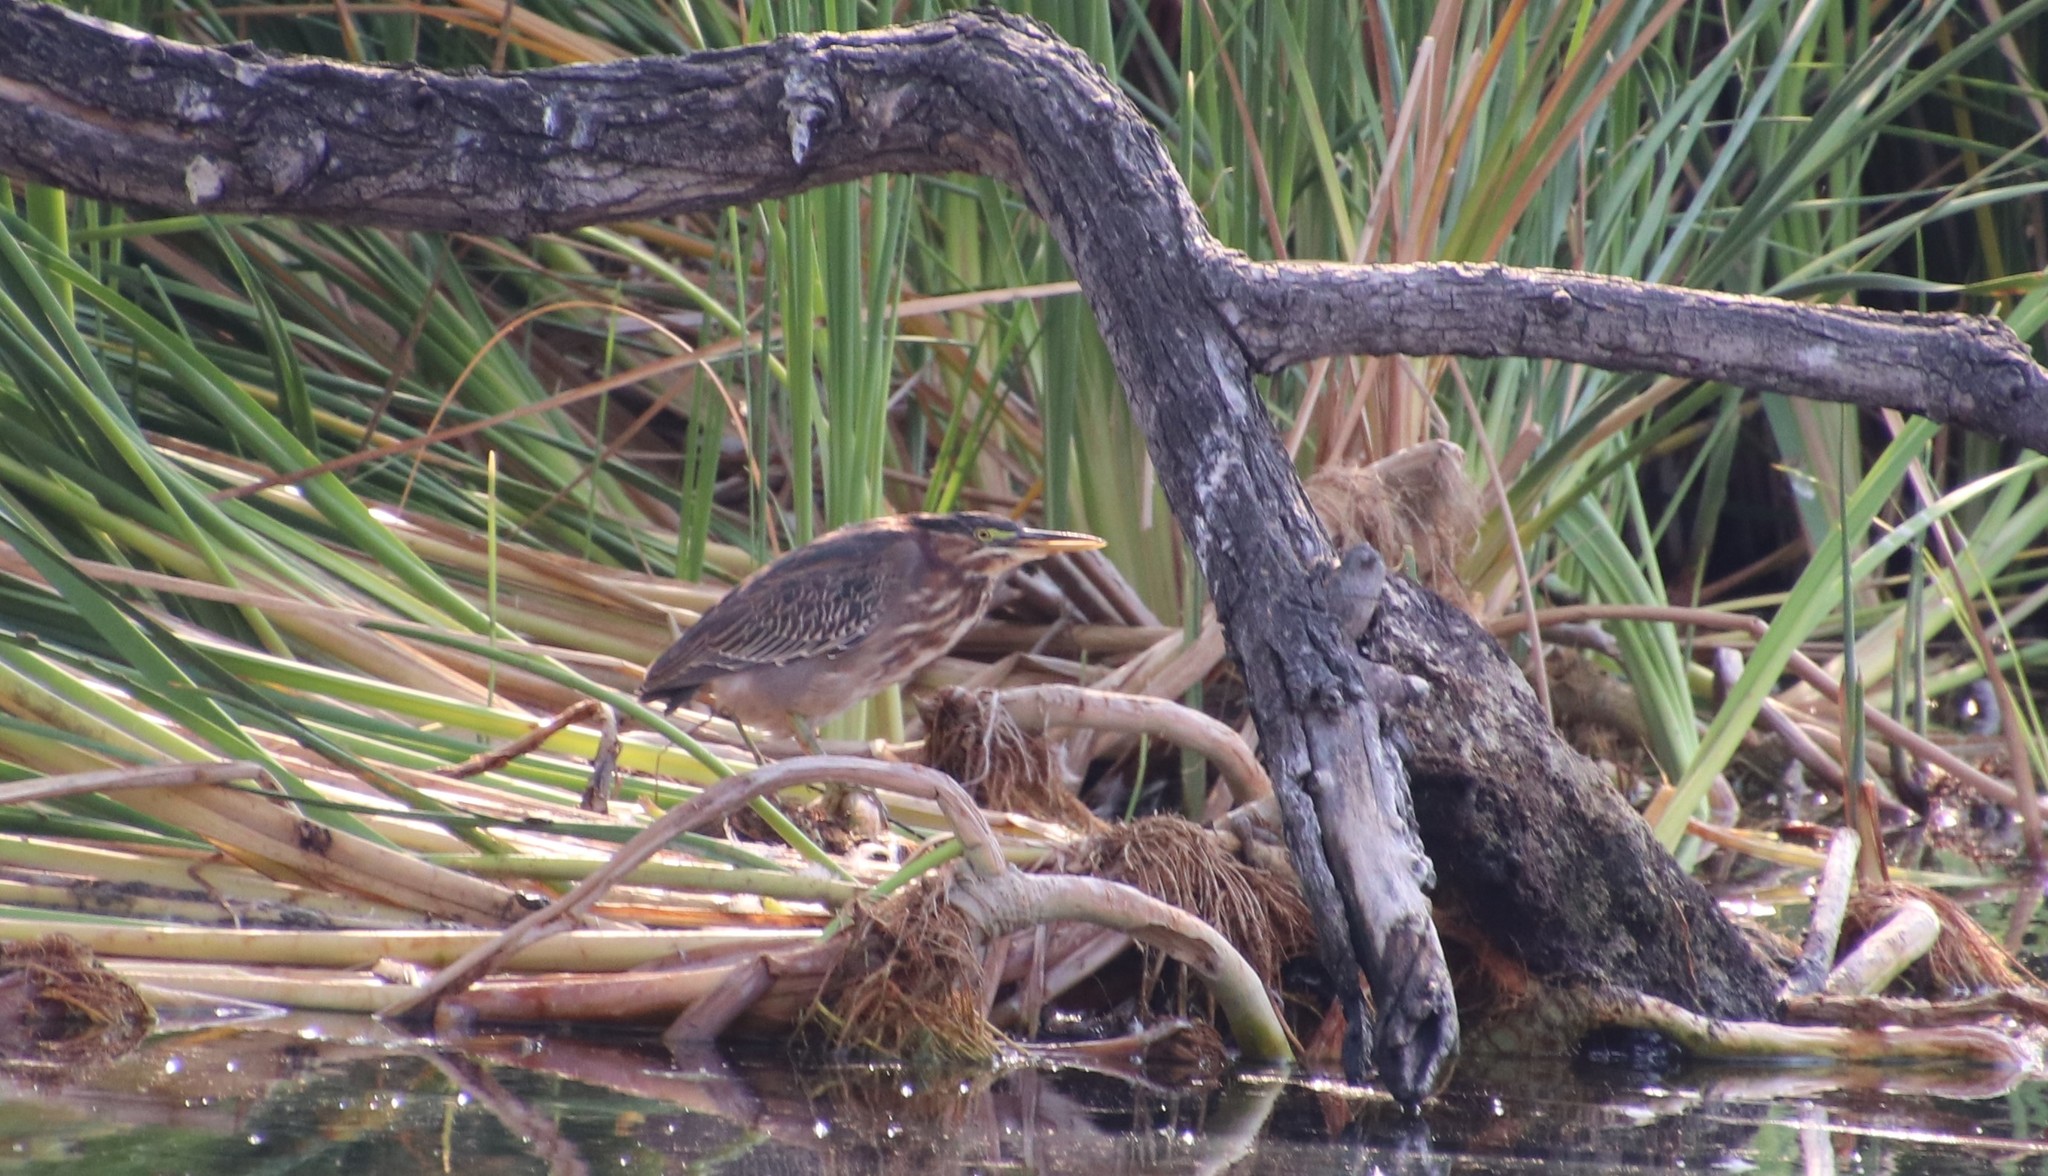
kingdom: Animalia
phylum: Chordata
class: Aves
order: Pelecaniformes
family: Ardeidae
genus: Butorides
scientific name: Butorides virescens
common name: Green heron
